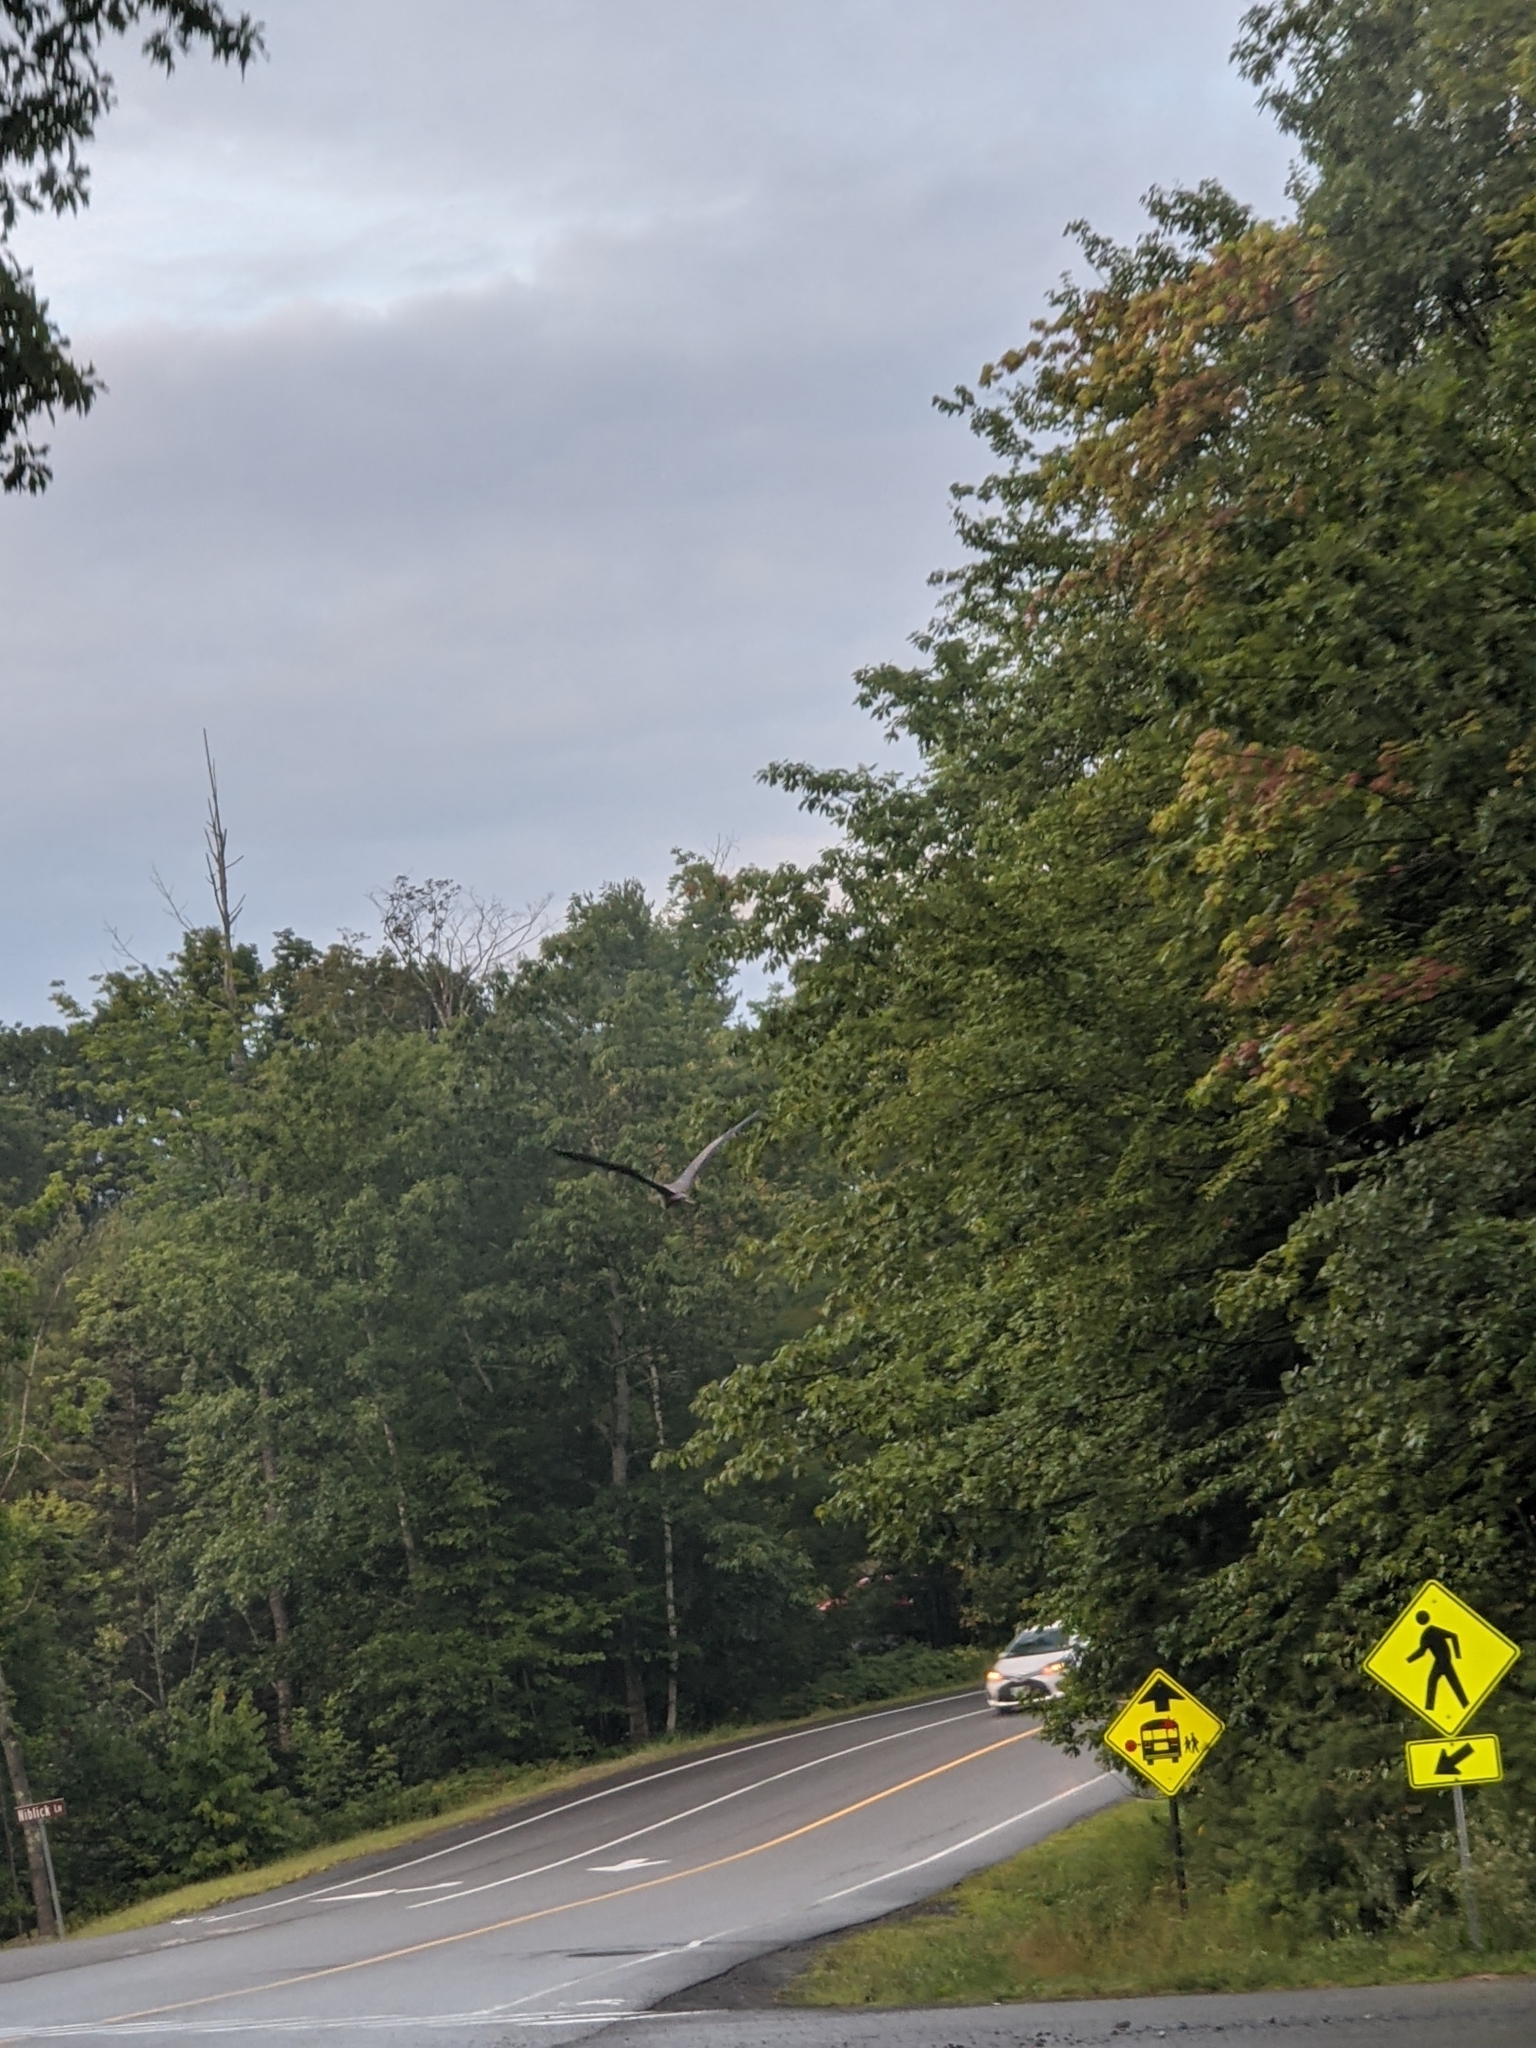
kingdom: Animalia
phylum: Chordata
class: Aves
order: Pelecaniformes
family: Ardeidae
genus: Ardea
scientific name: Ardea herodias
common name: Great blue heron
